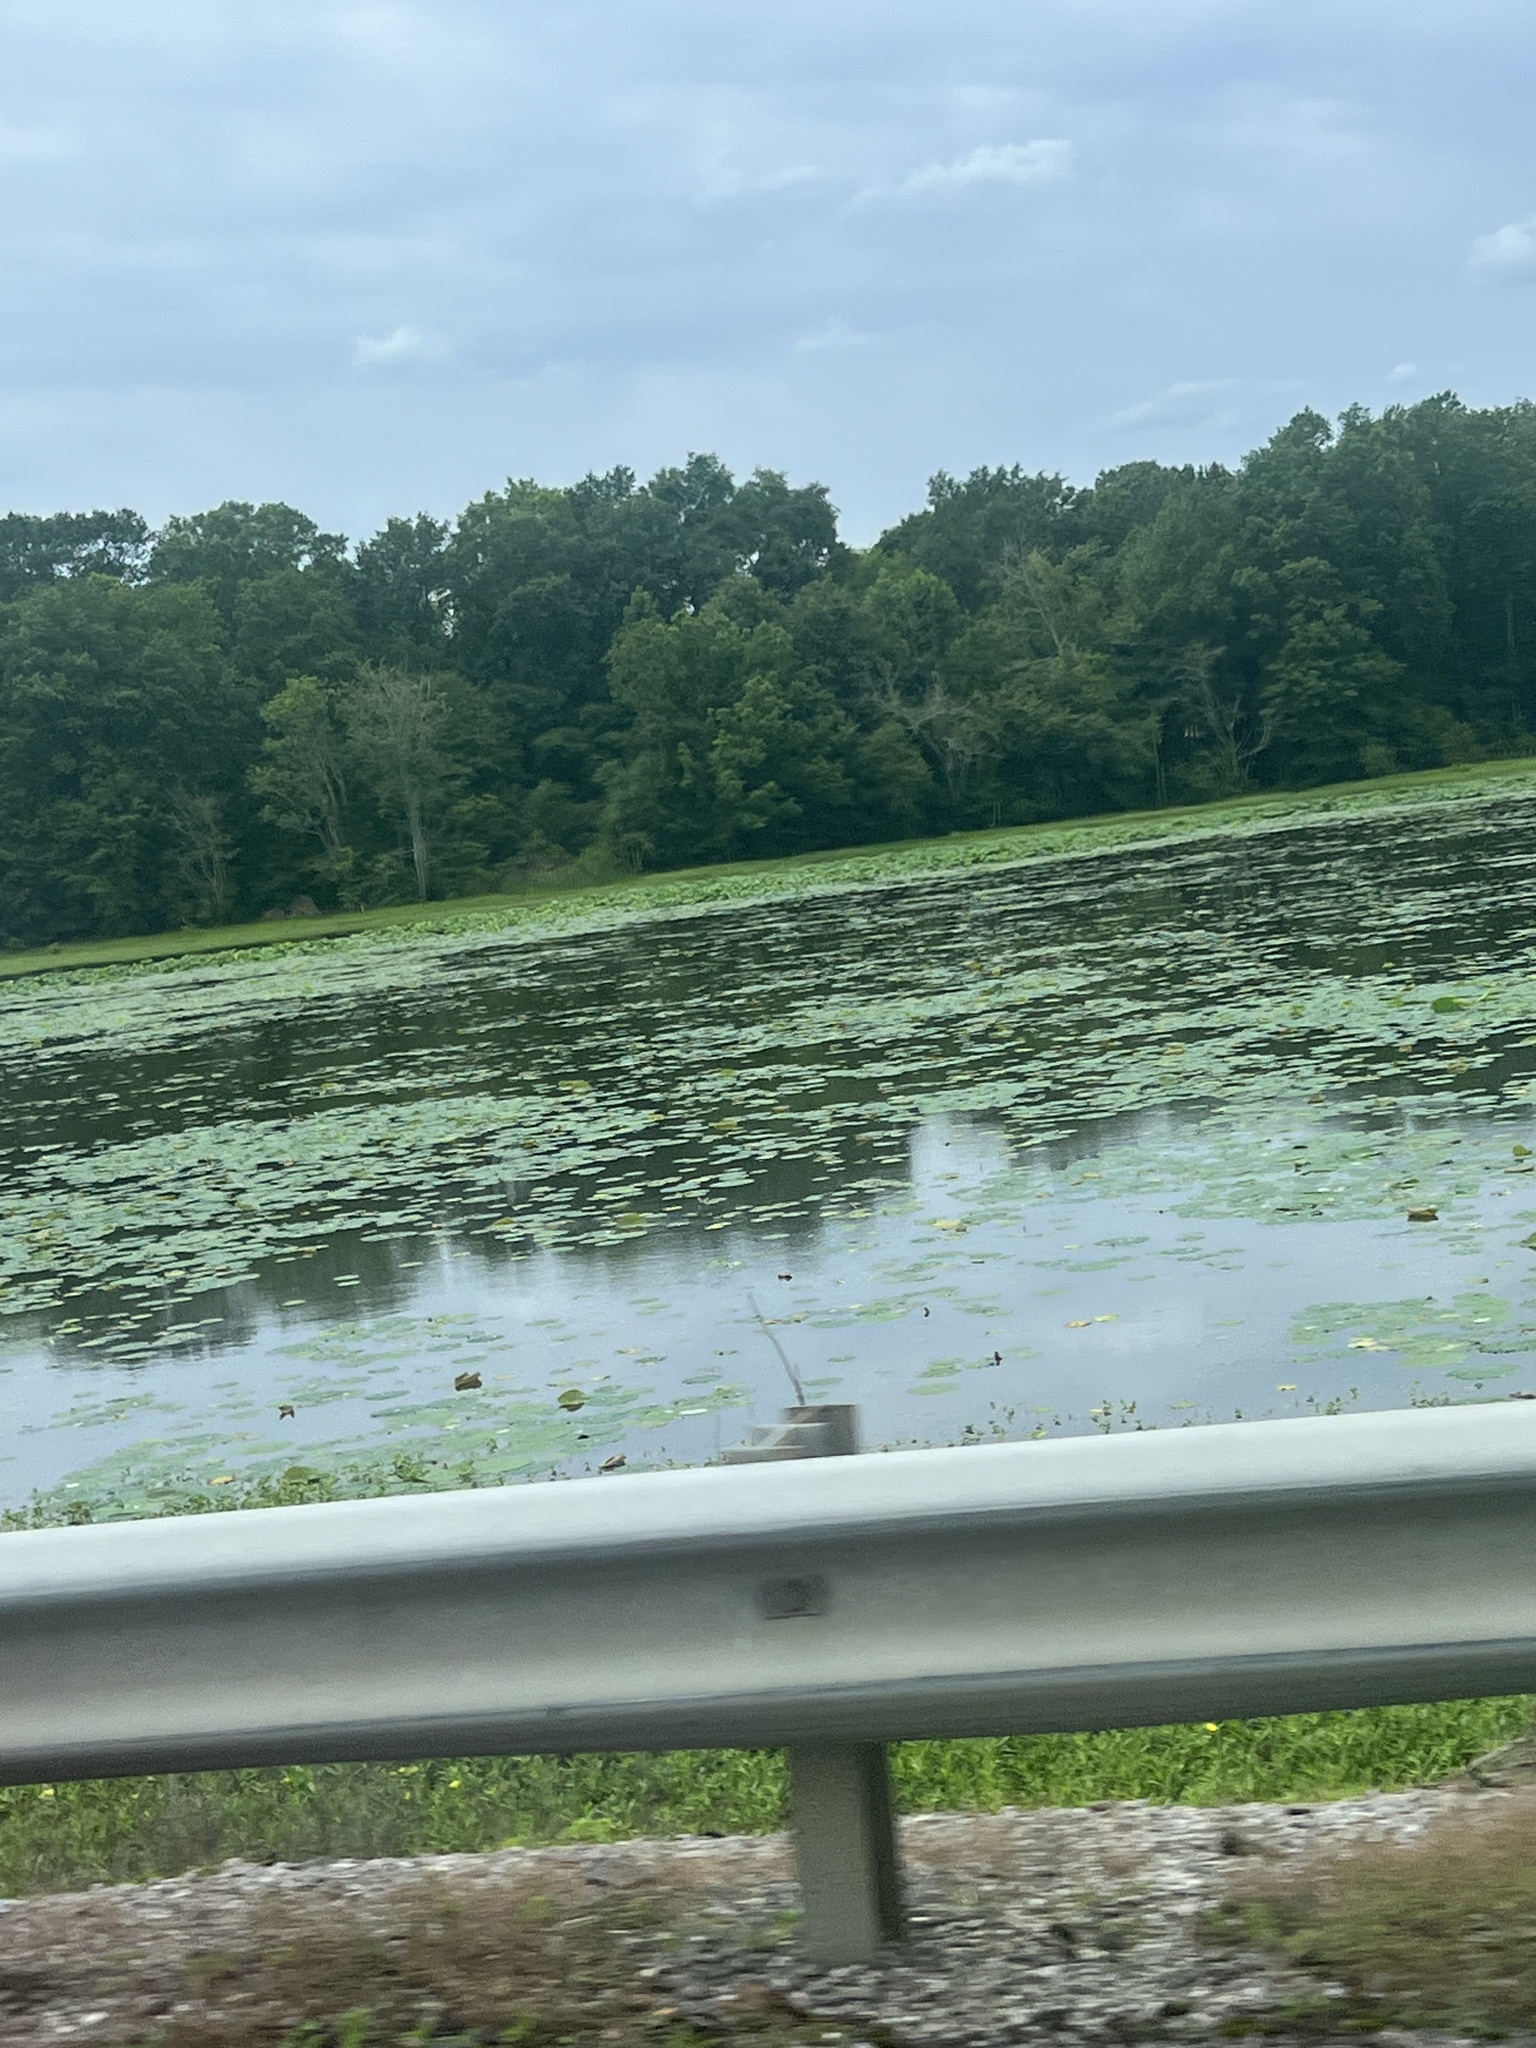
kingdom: Plantae
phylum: Tracheophyta
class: Magnoliopsida
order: Proteales
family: Nelumbonaceae
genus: Nelumbo
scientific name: Nelumbo lutea
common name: American lotus
